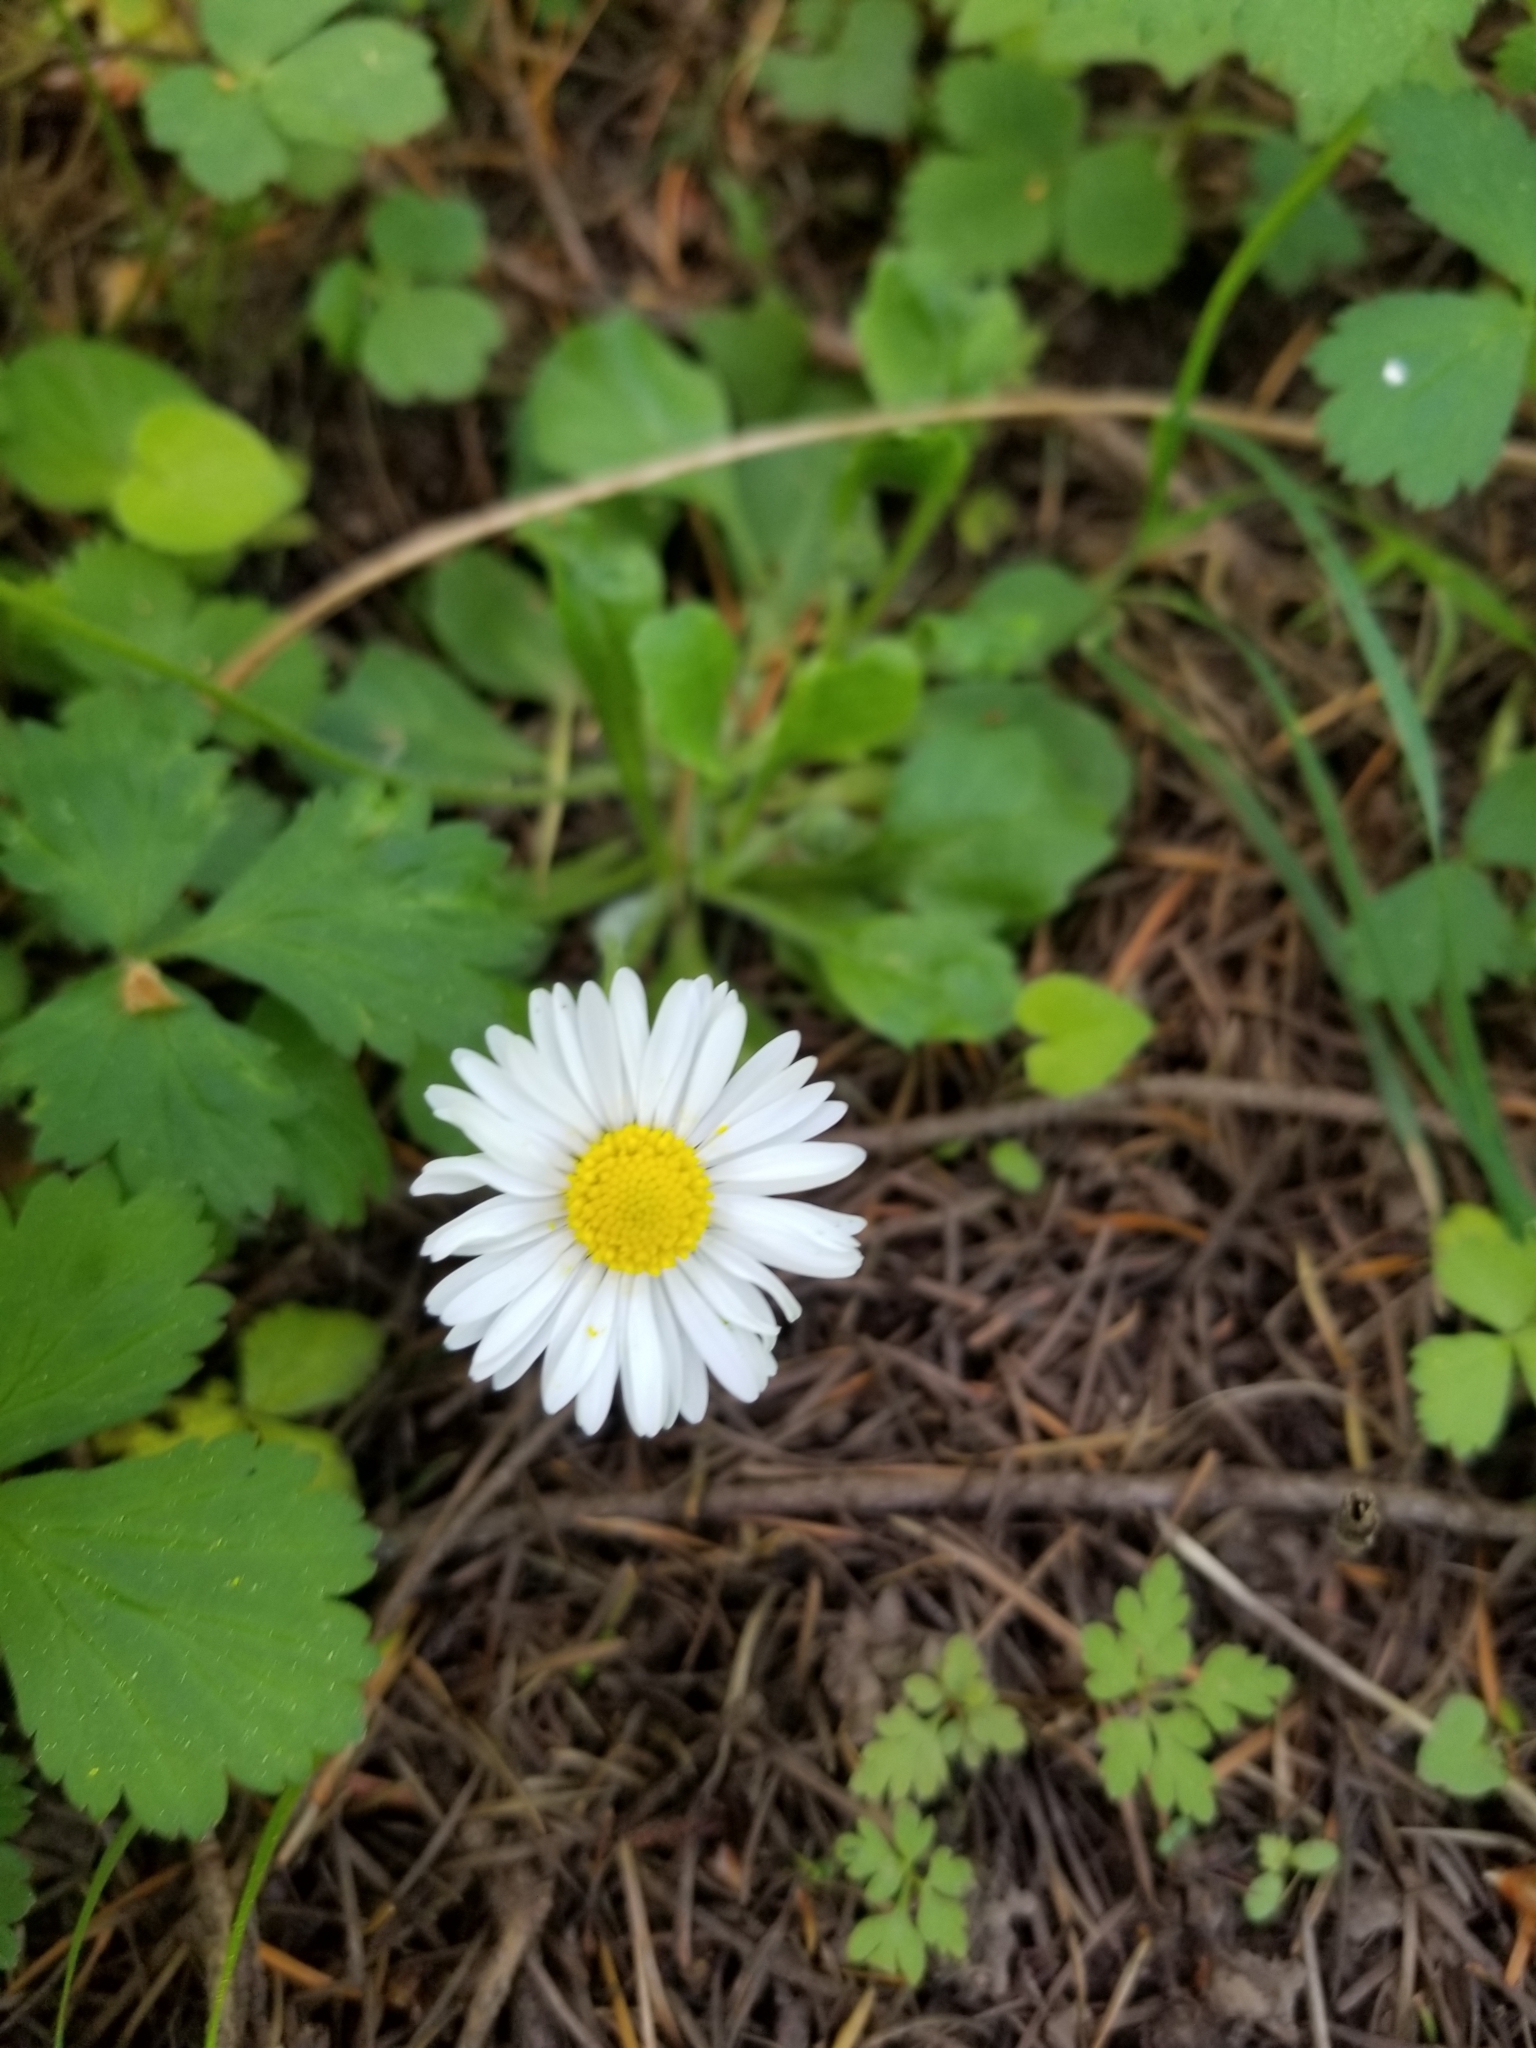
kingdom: Plantae
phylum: Tracheophyta
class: Magnoliopsida
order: Asterales
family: Asteraceae
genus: Bellis
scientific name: Bellis perennis
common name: Lawndaisy
